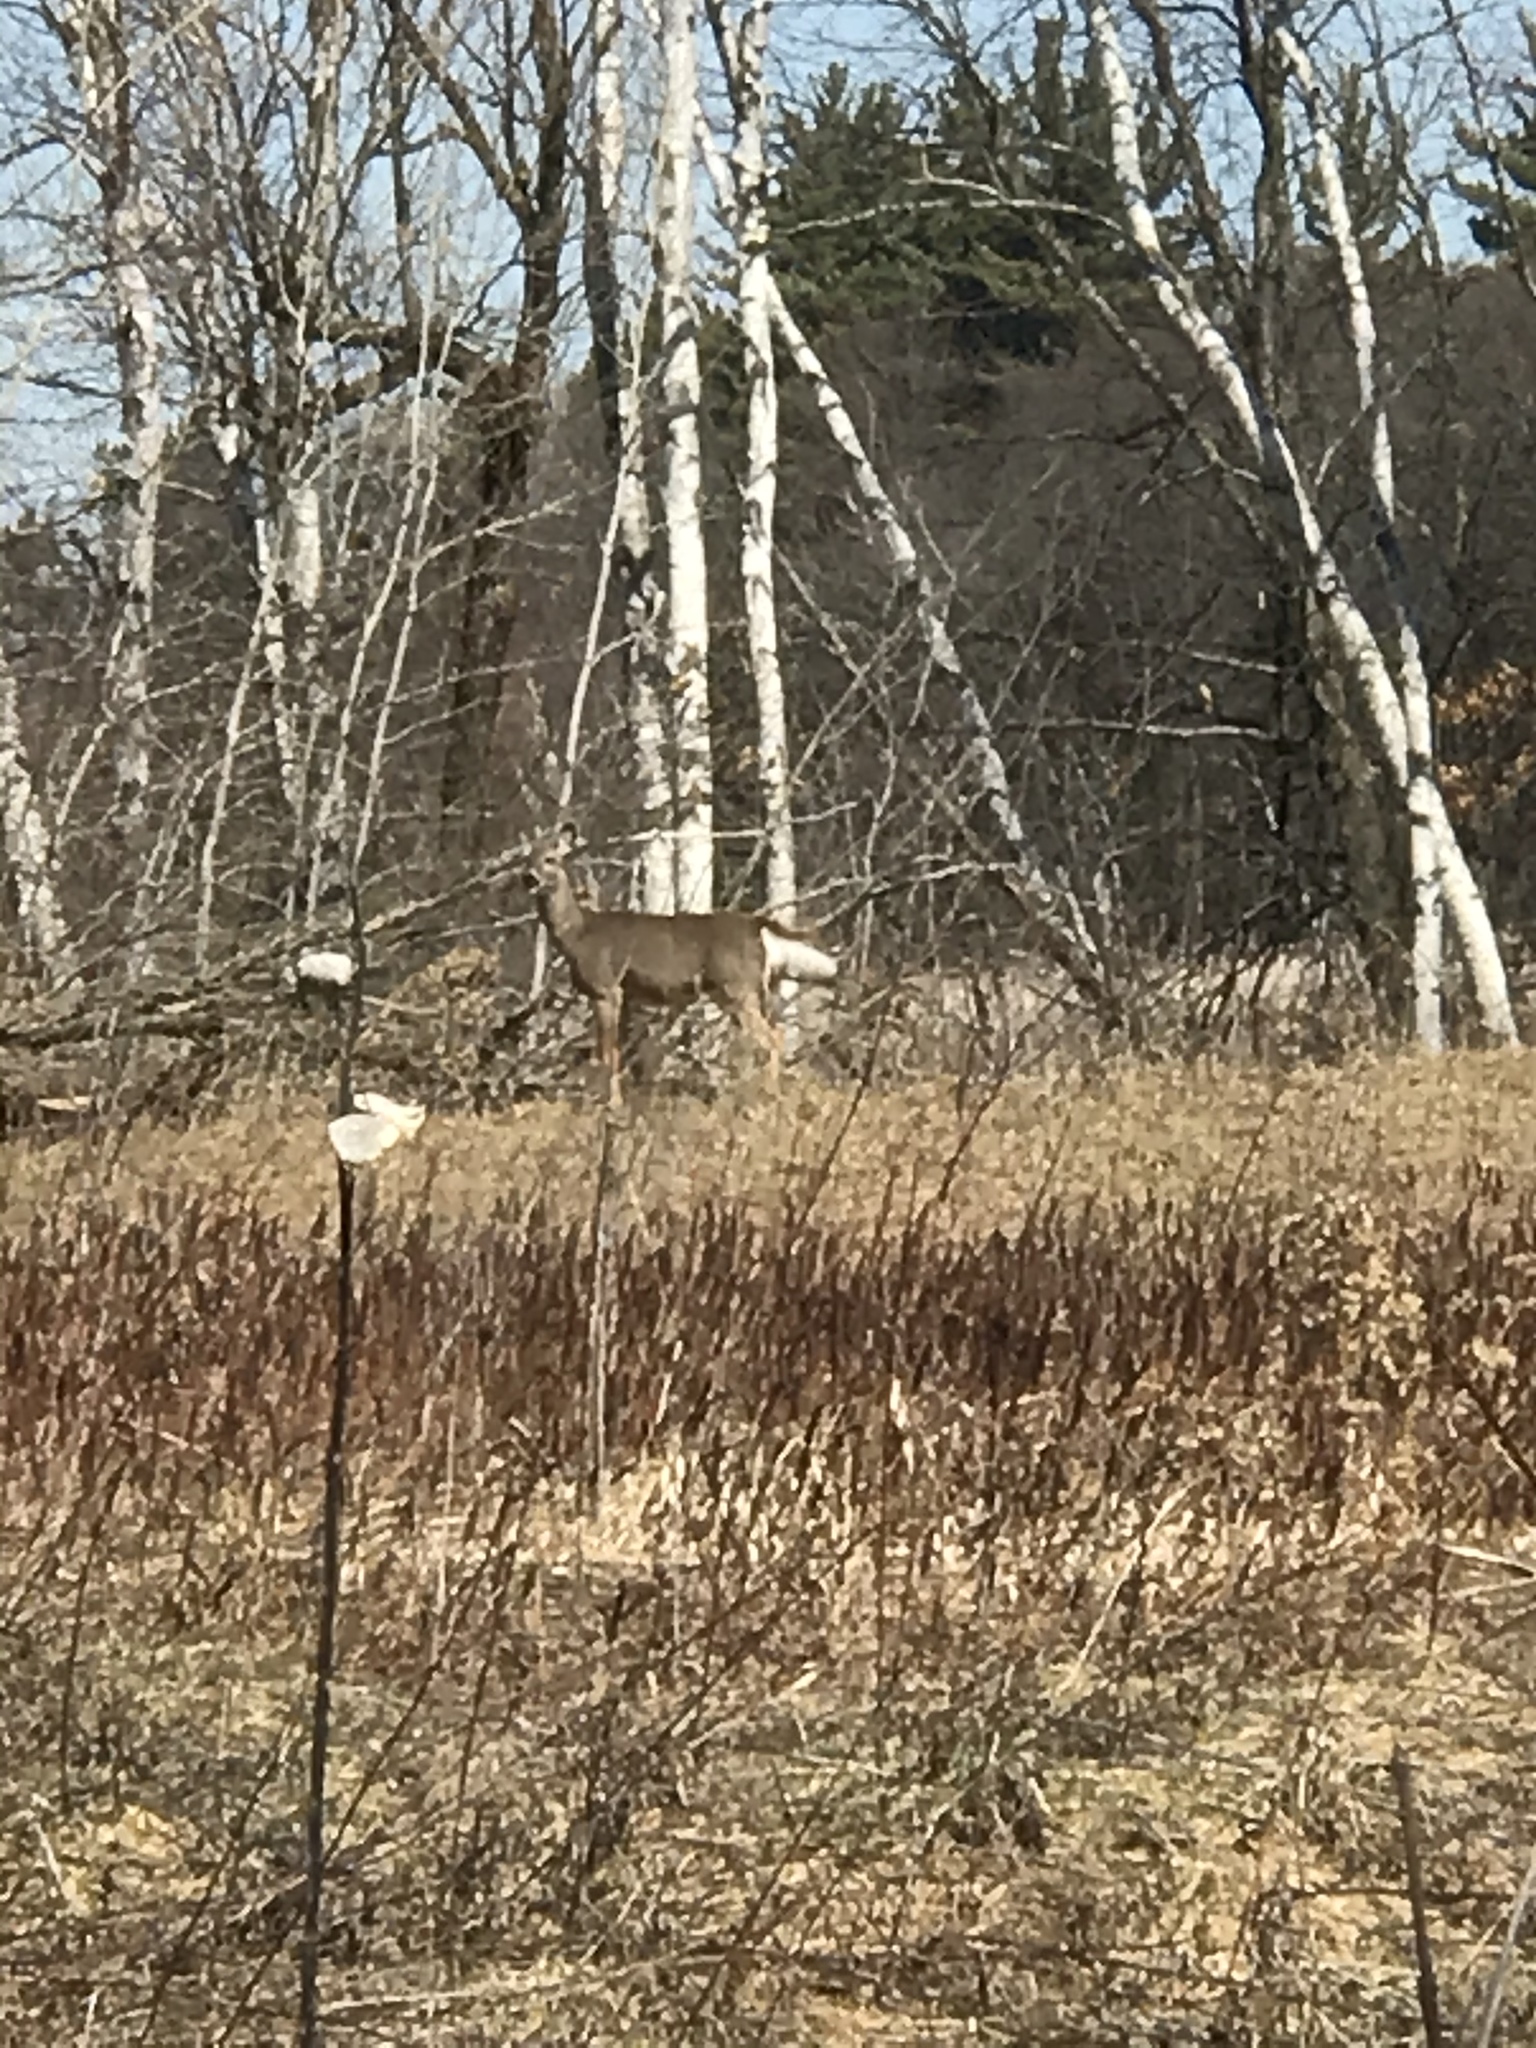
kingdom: Animalia
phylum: Chordata
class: Mammalia
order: Artiodactyla
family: Cervidae
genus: Odocoileus
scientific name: Odocoileus virginianus
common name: White-tailed deer
